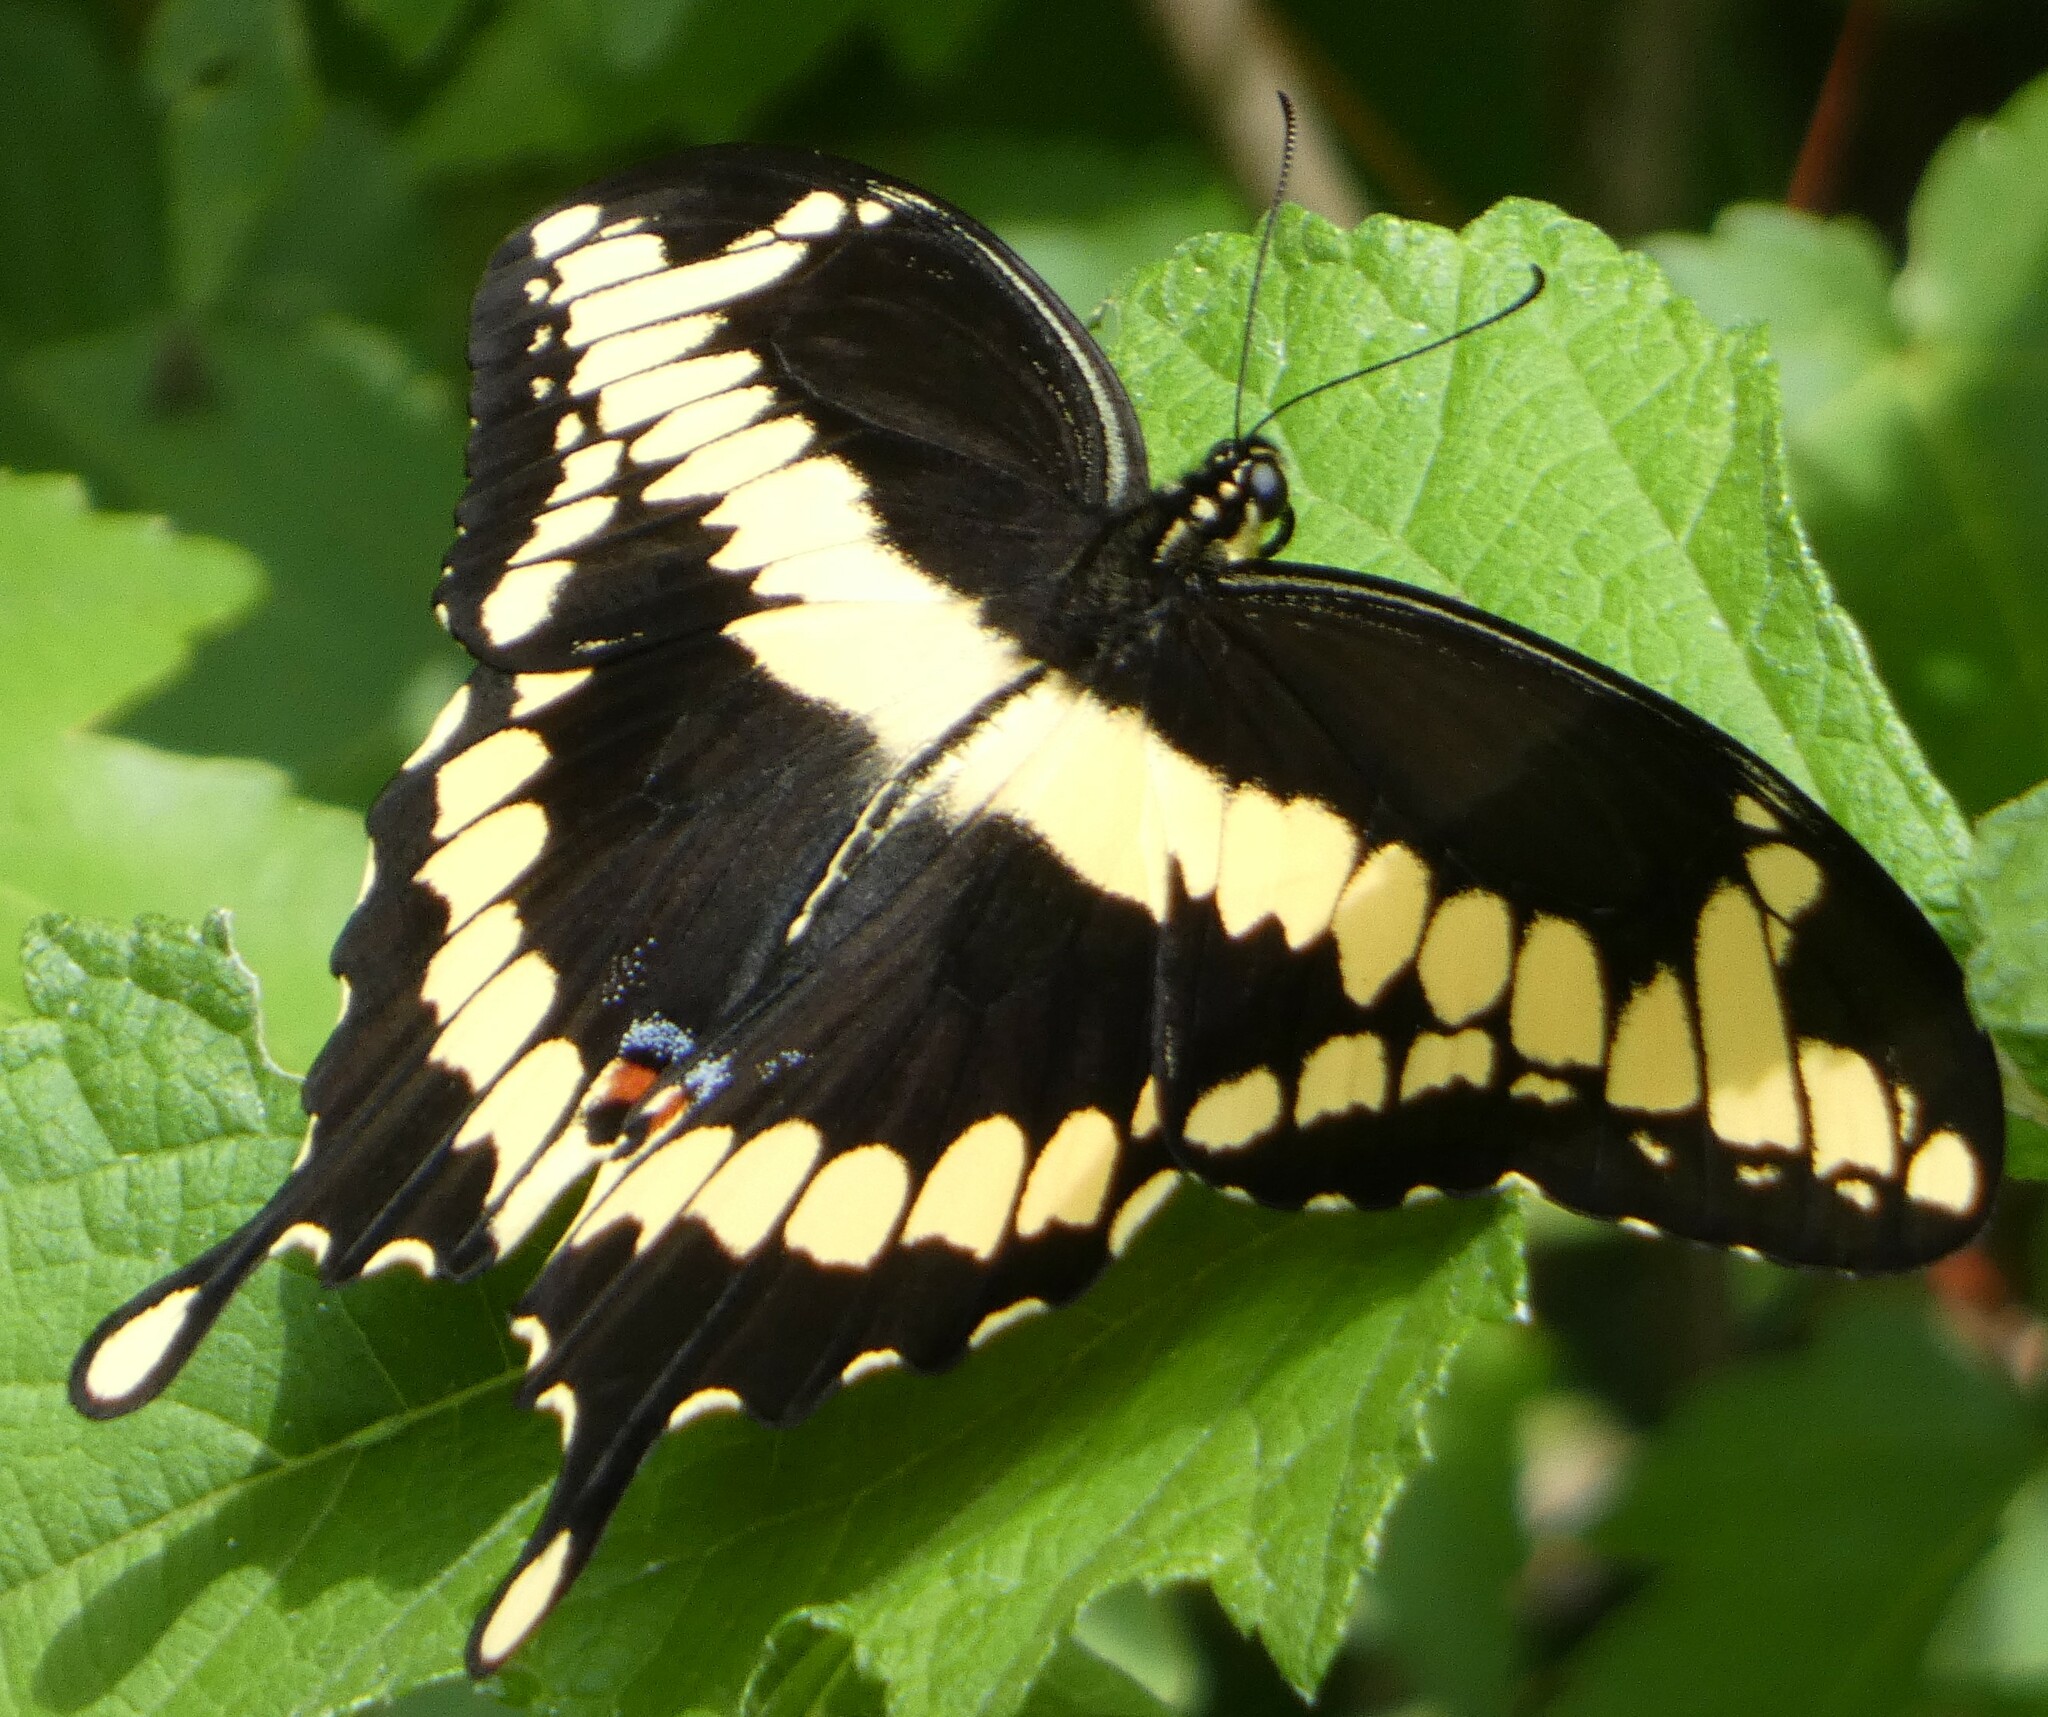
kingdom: Animalia
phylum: Arthropoda
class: Insecta
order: Lepidoptera
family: Papilionidae
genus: Papilio
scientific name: Papilio cresphontes
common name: Giant swallowtail
